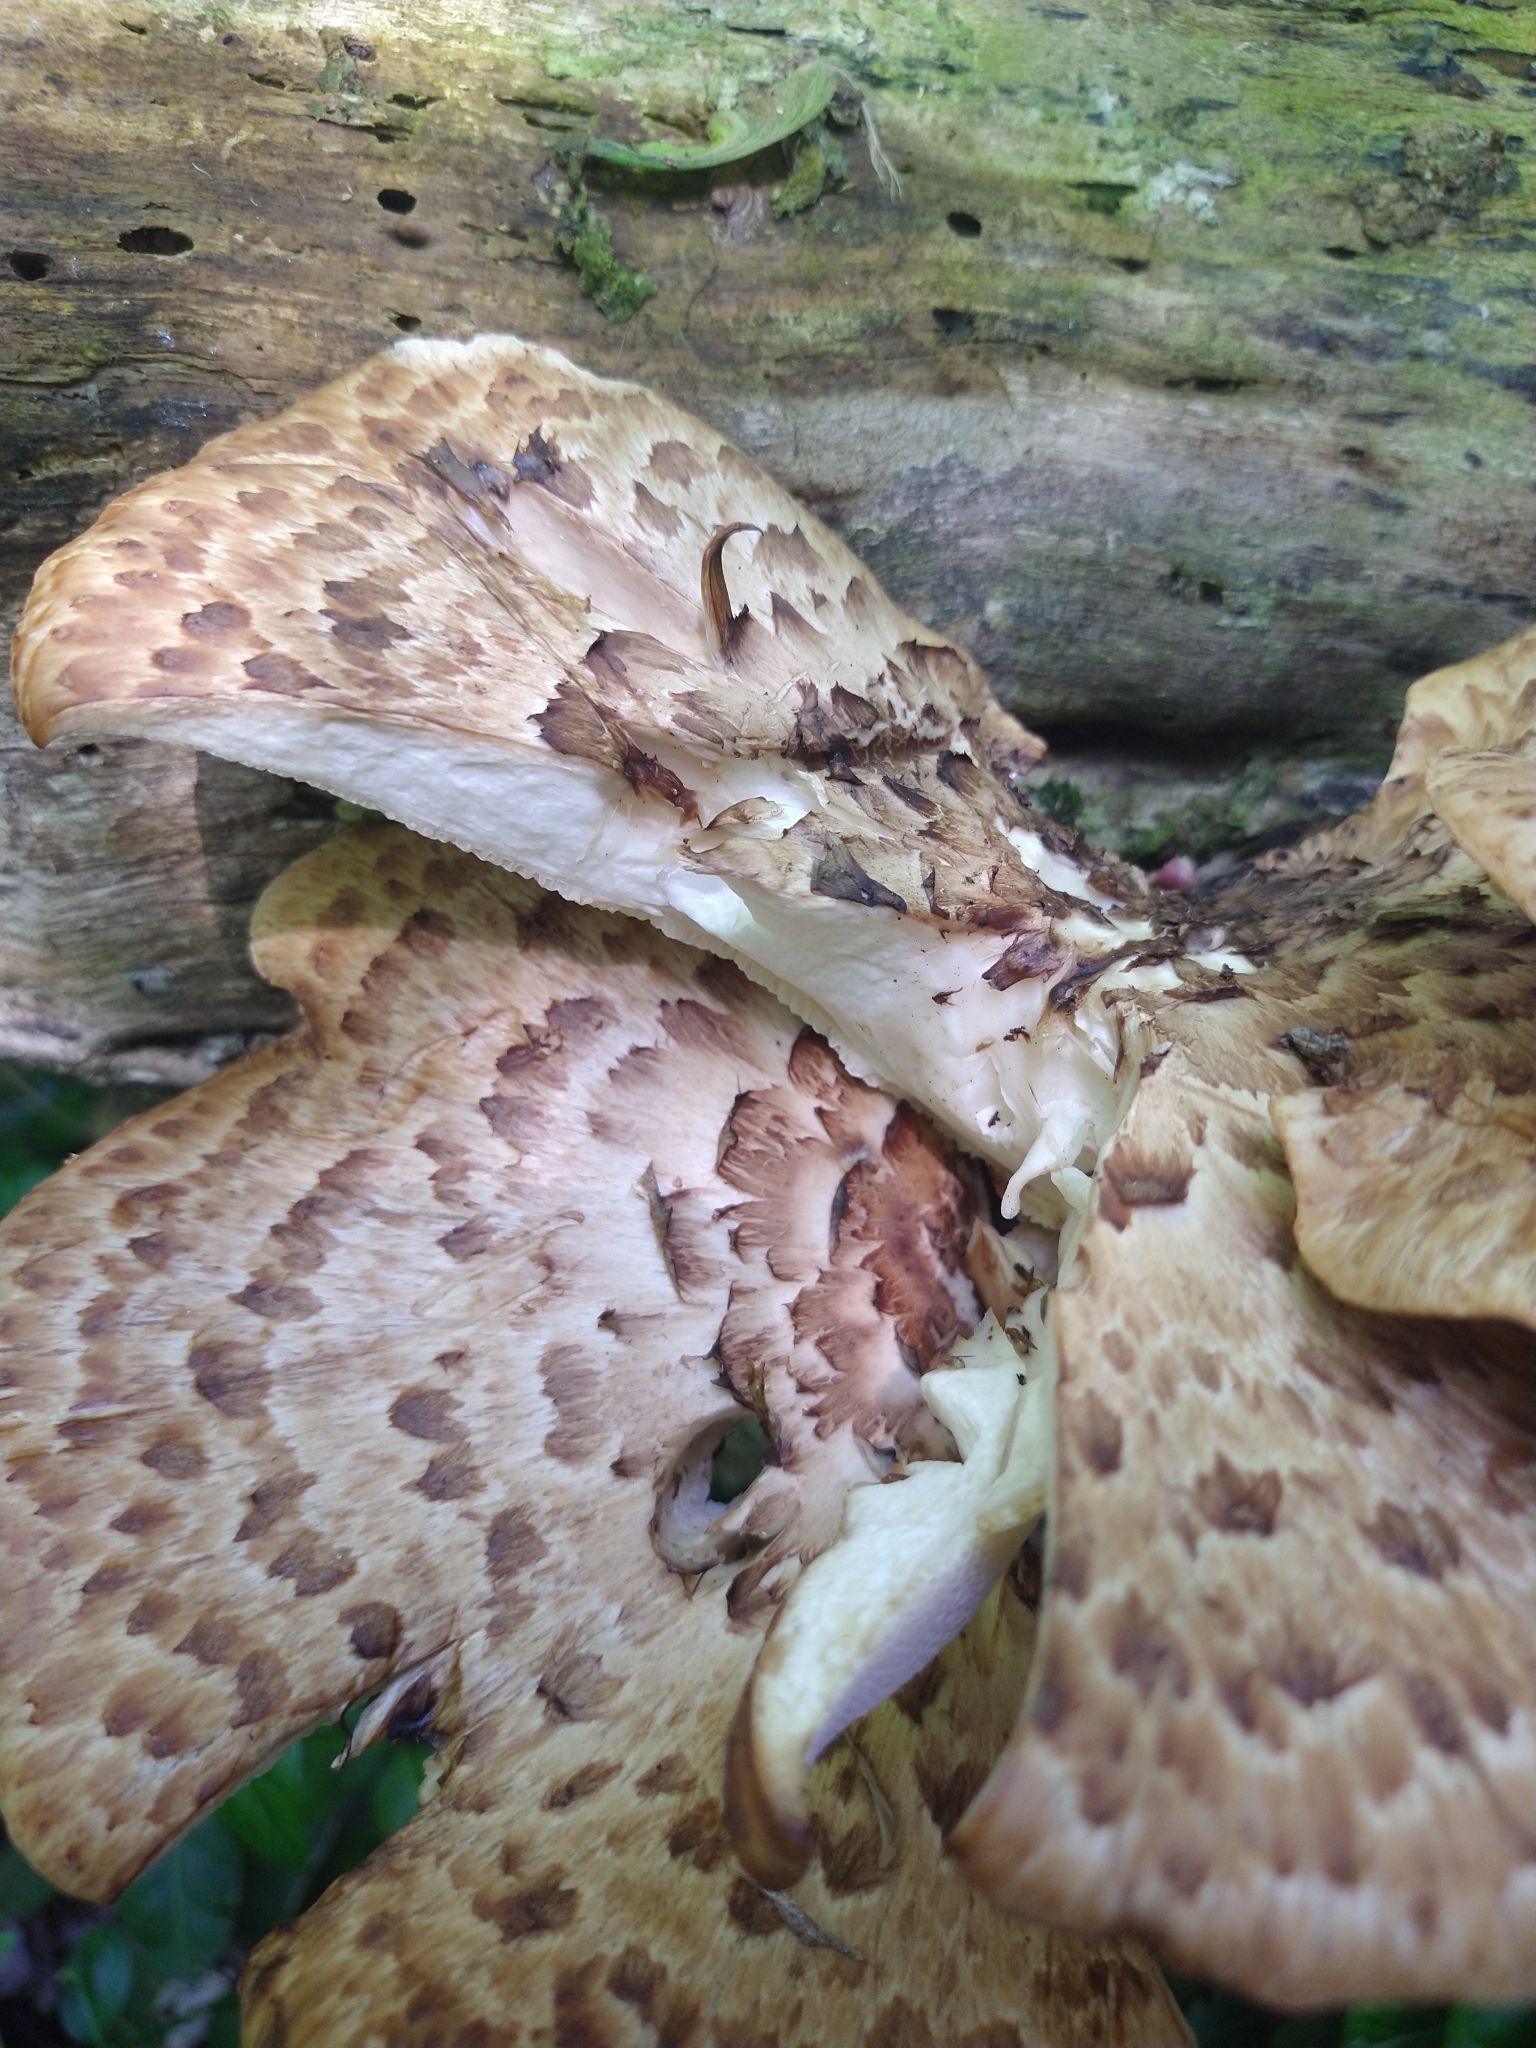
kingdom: Fungi
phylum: Basidiomycota
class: Agaricomycetes
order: Polyporales
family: Polyporaceae
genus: Cerioporus
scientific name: Cerioporus squamosus
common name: Dryad's saddle
